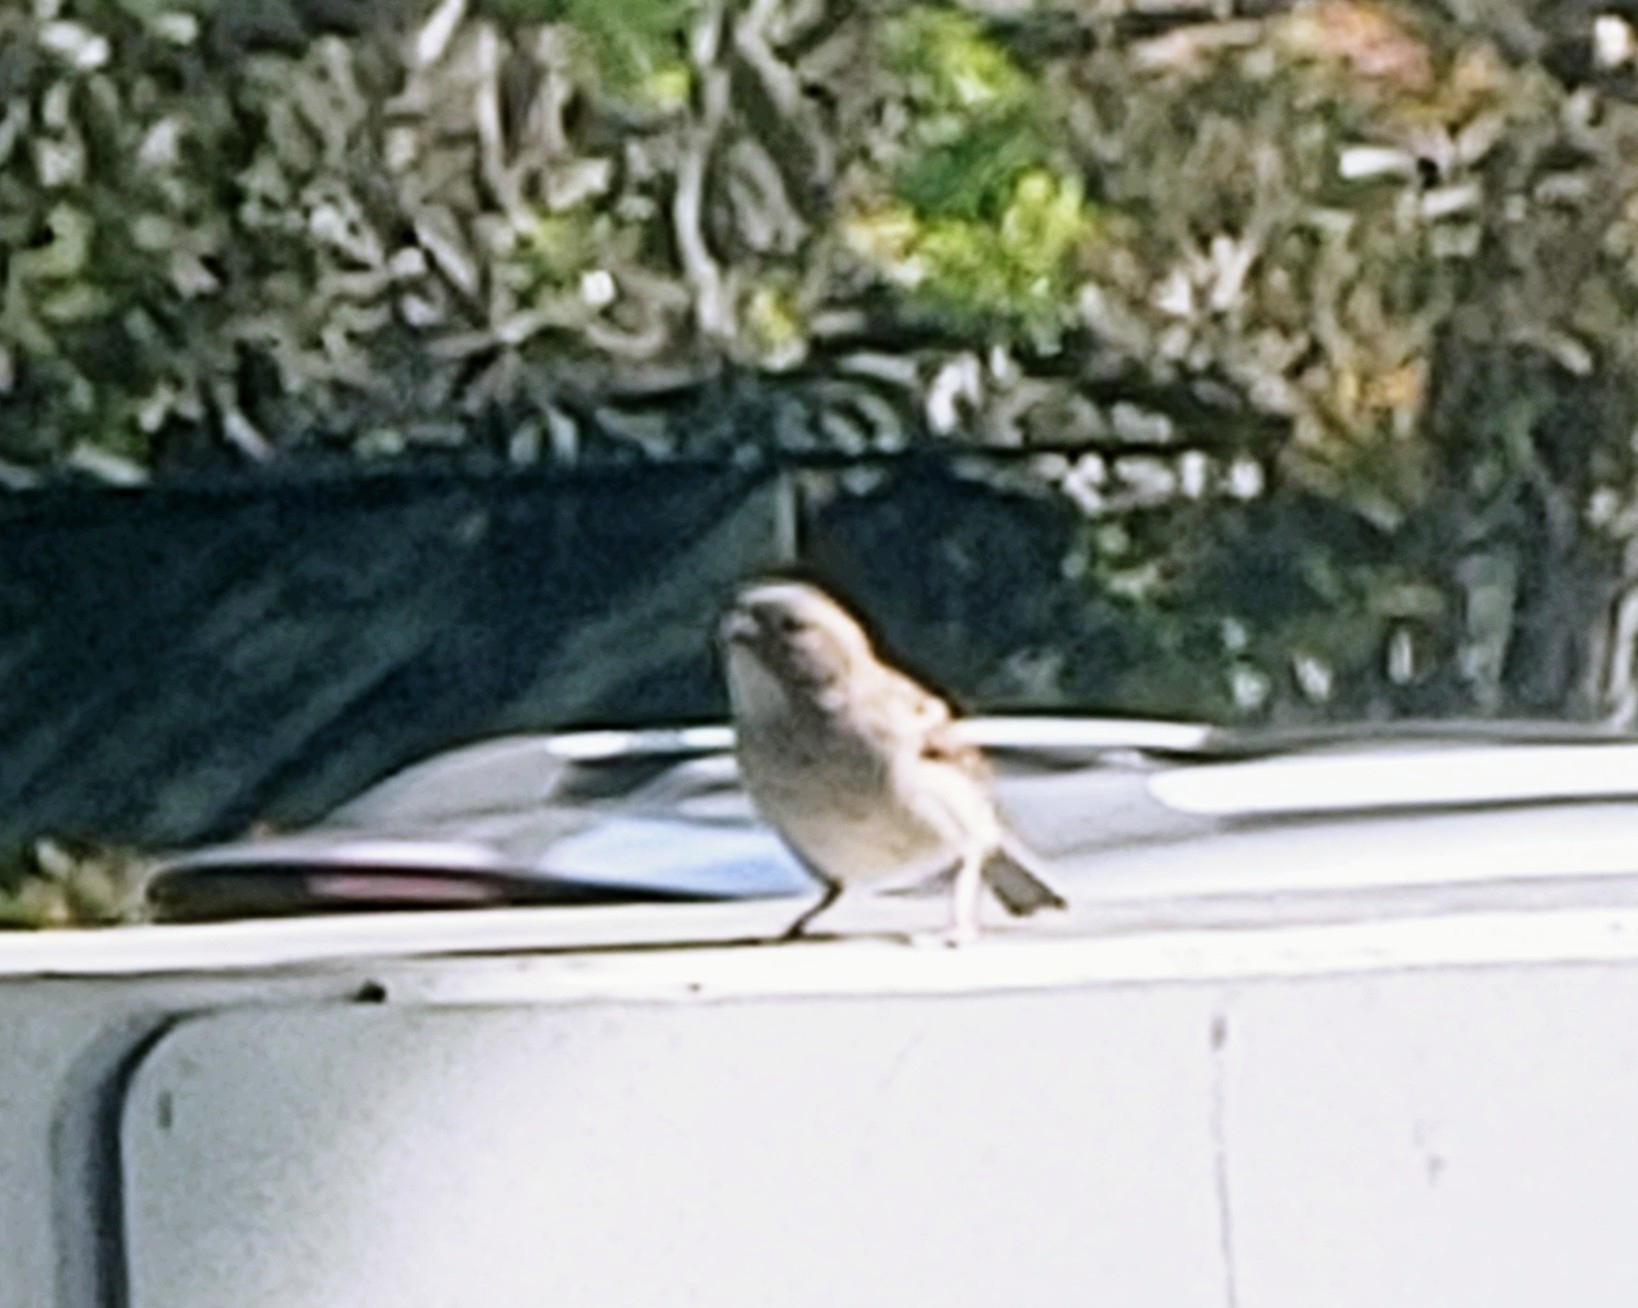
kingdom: Animalia
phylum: Chordata
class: Aves
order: Passeriformes
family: Passeridae
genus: Passer
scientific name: Passer domesticus
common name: House sparrow
